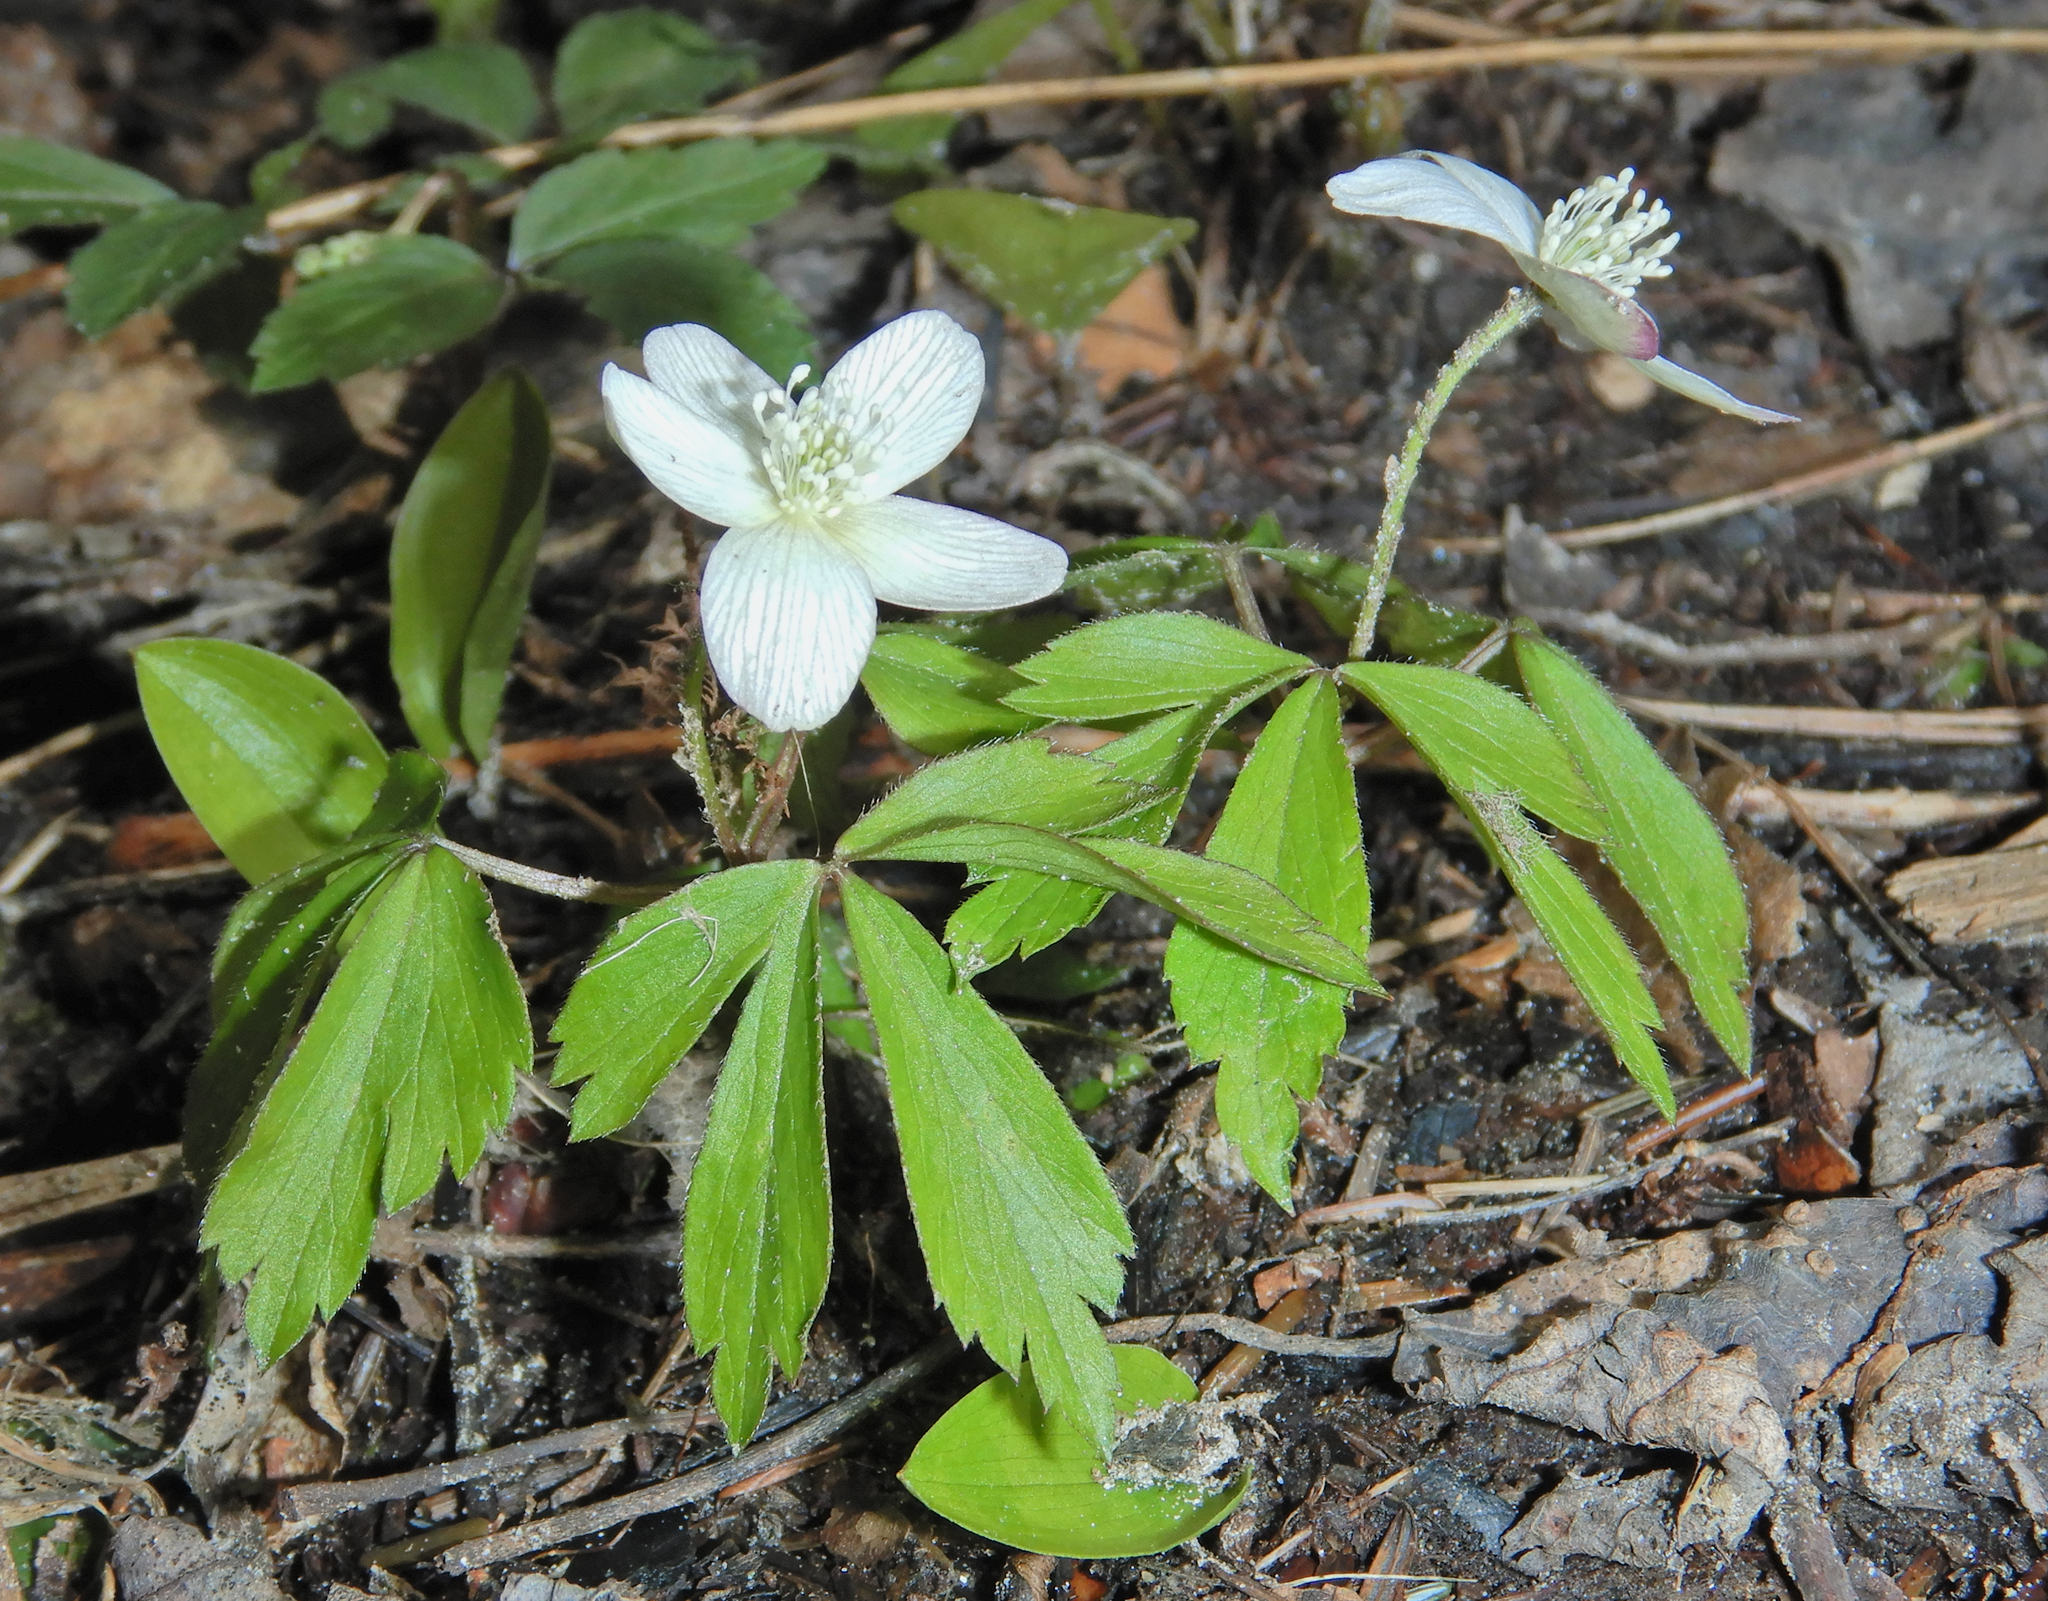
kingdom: Plantae
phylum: Tracheophyta
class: Magnoliopsida
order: Ranunculales
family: Ranunculaceae
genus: Anemone
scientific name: Anemone quinquefolia
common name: Wood anemone
